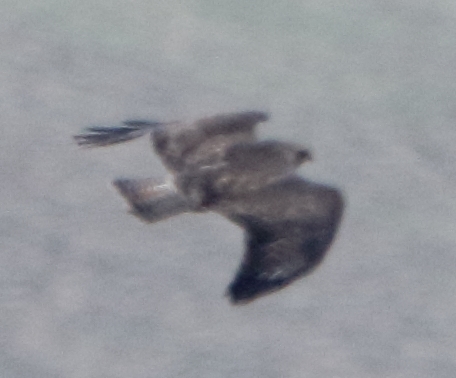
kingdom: Animalia
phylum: Chordata
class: Aves
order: Accipitriformes
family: Accipitridae
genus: Buteo
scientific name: Buteo buteo
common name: Common buzzard
